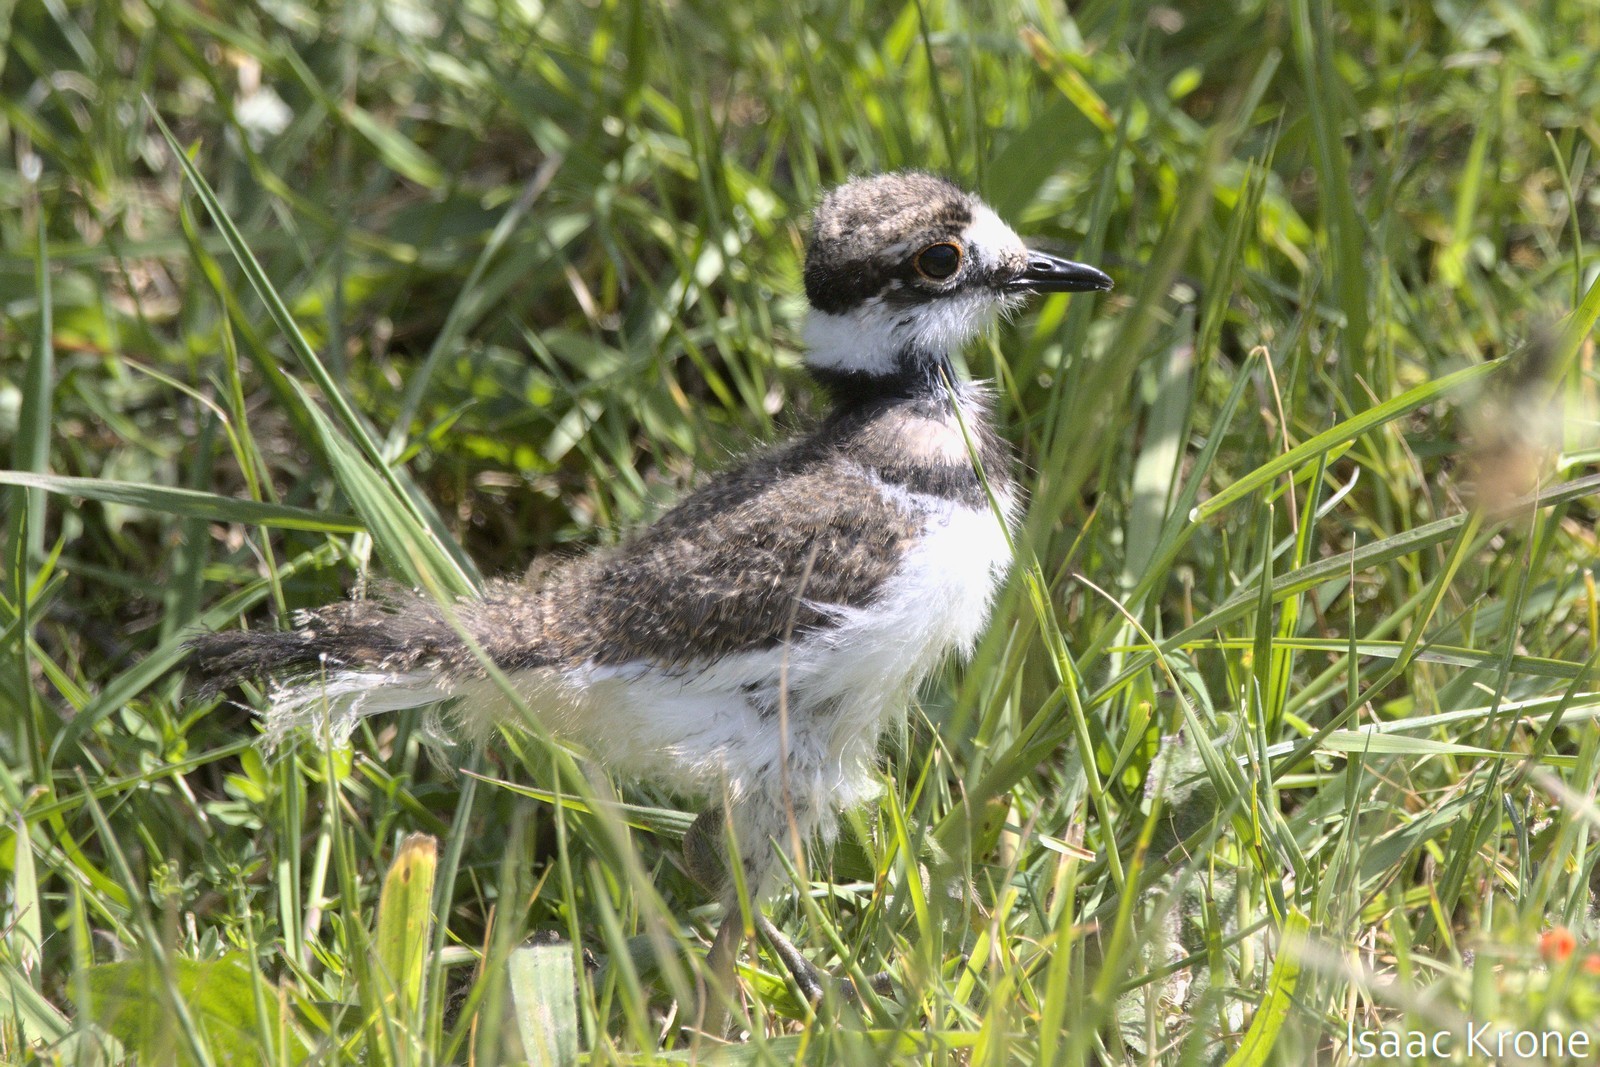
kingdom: Animalia
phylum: Chordata
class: Aves
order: Charadriiformes
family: Charadriidae
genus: Charadrius
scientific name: Charadrius vociferus
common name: Killdeer
